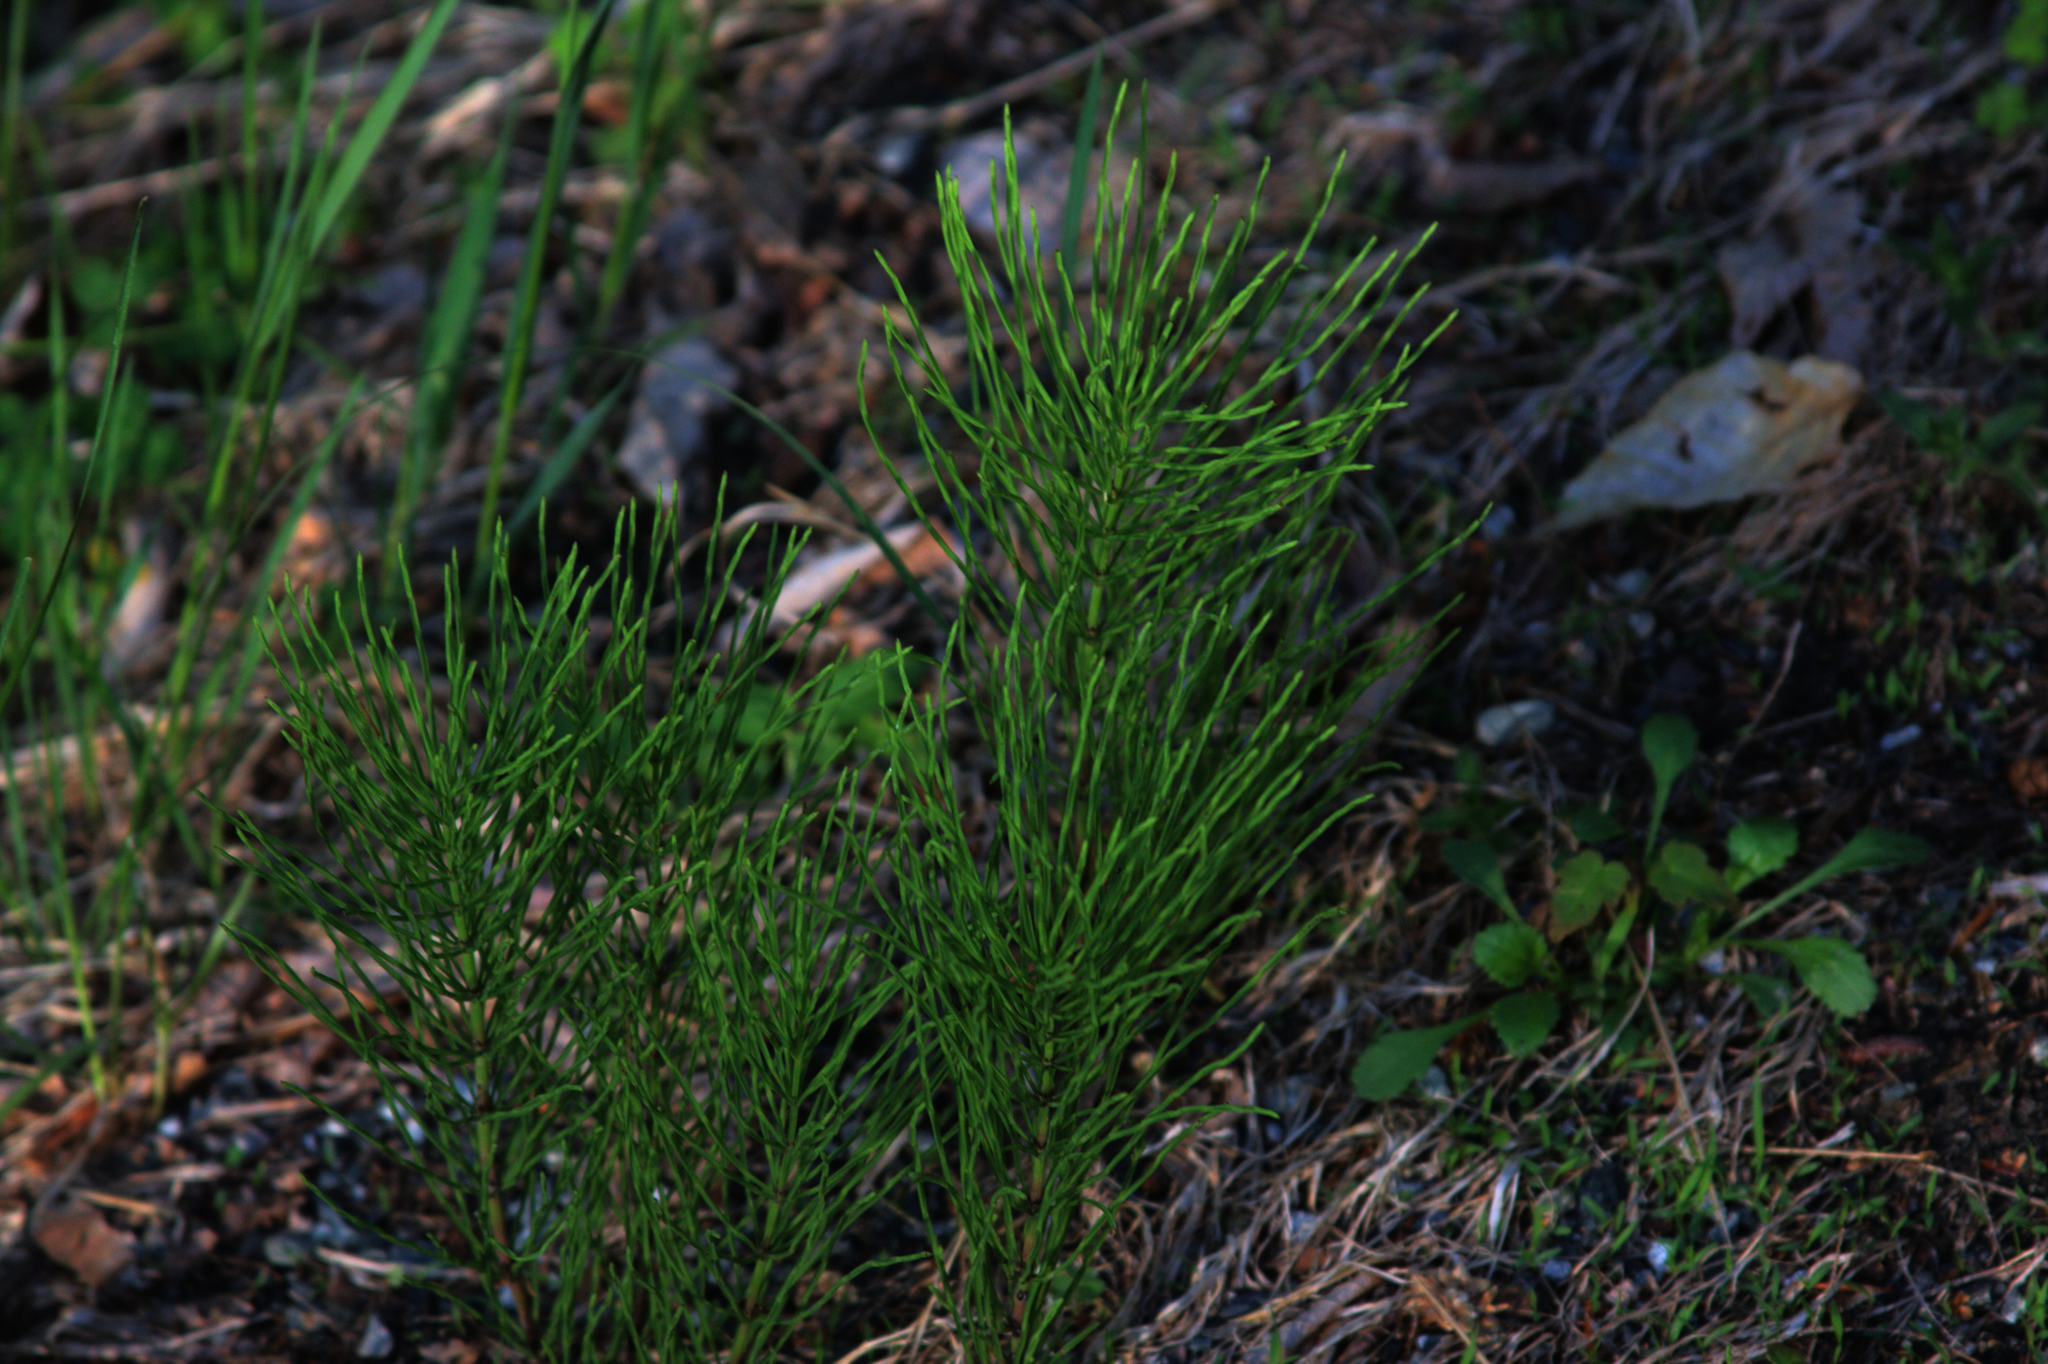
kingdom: Plantae
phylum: Tracheophyta
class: Polypodiopsida
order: Equisetales
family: Equisetaceae
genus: Equisetum
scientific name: Equisetum arvense
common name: Field horsetail
